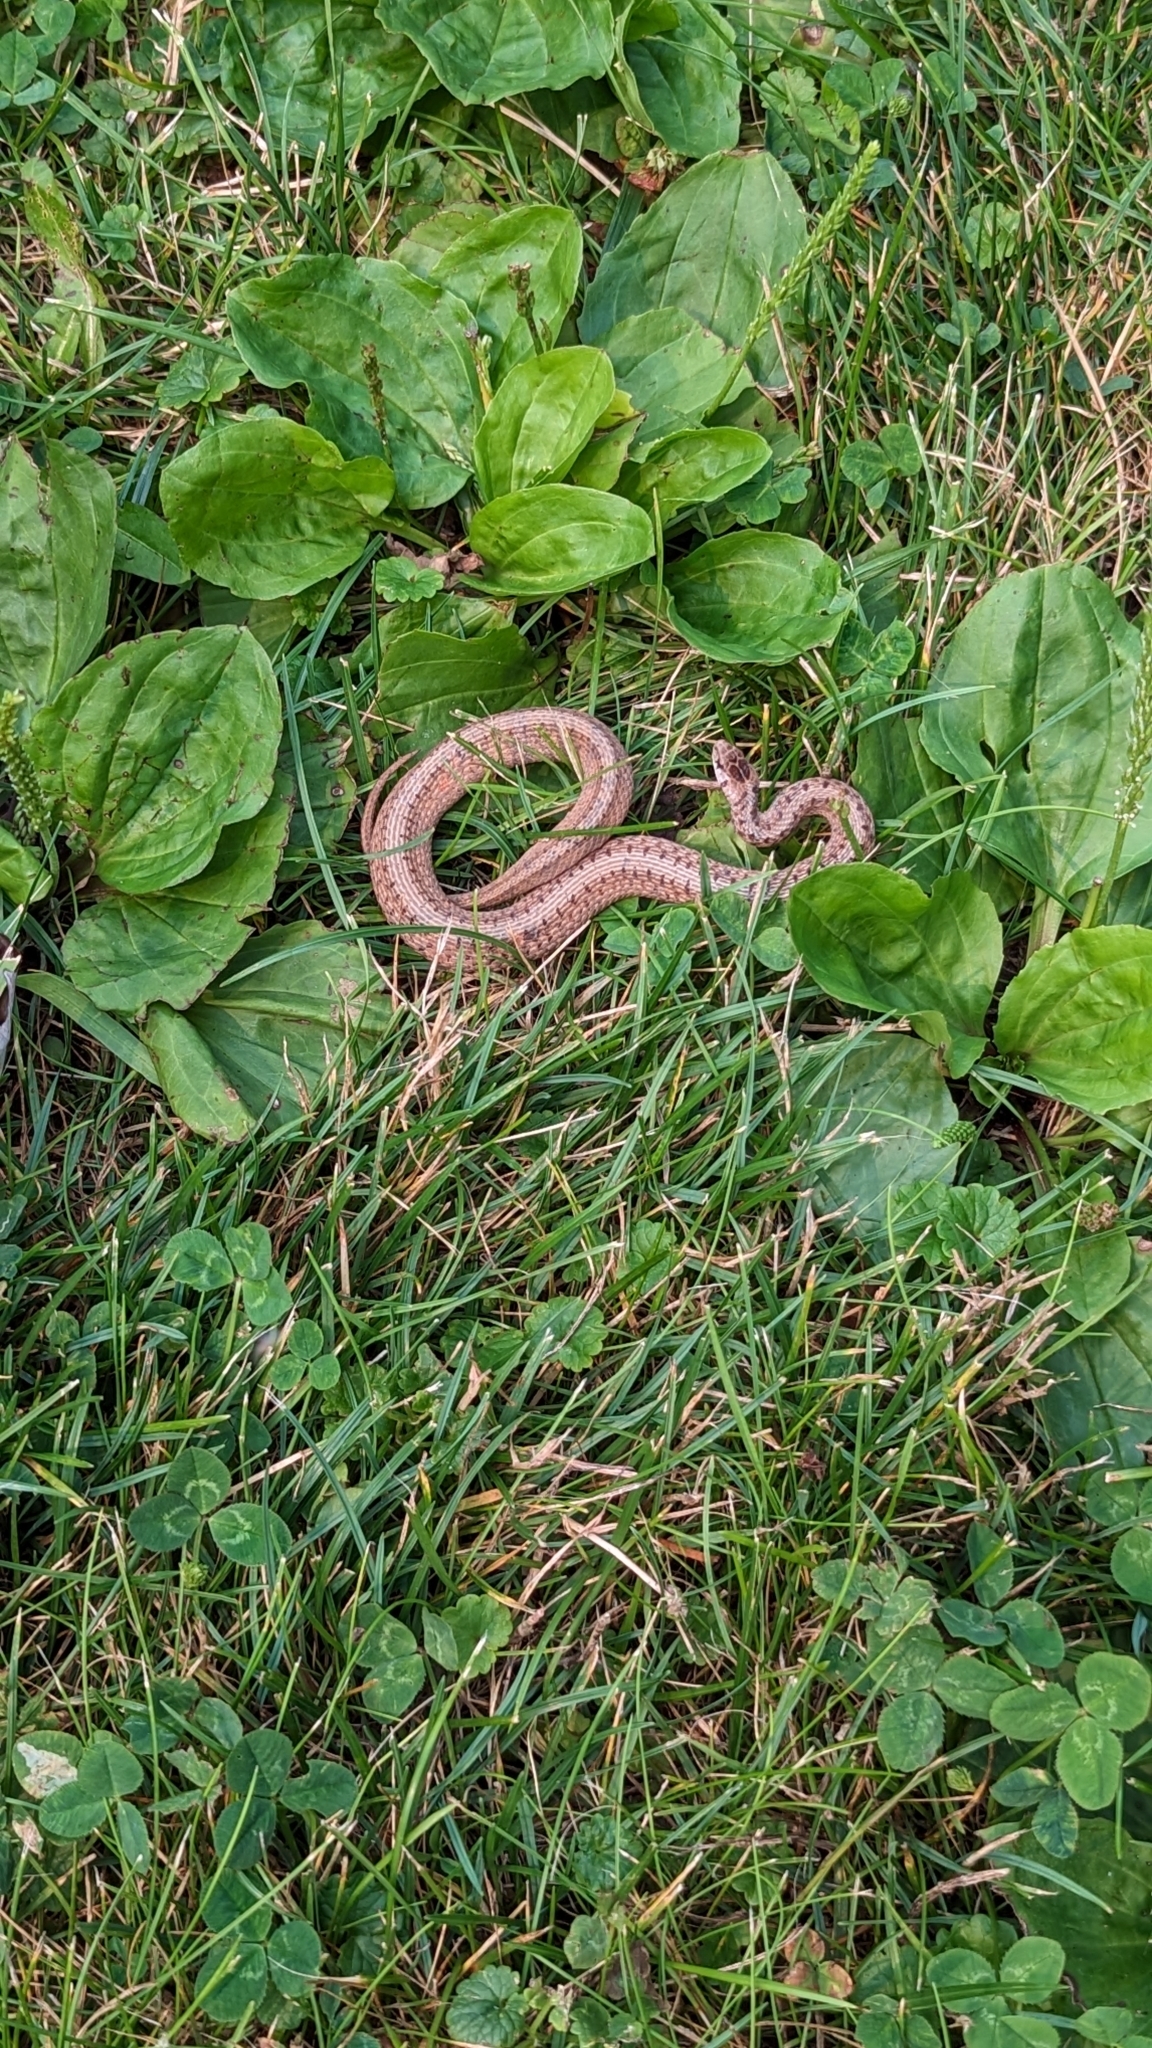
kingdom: Animalia
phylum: Chordata
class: Squamata
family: Colubridae
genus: Storeria
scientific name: Storeria dekayi
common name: (dekay’s) brown snake
